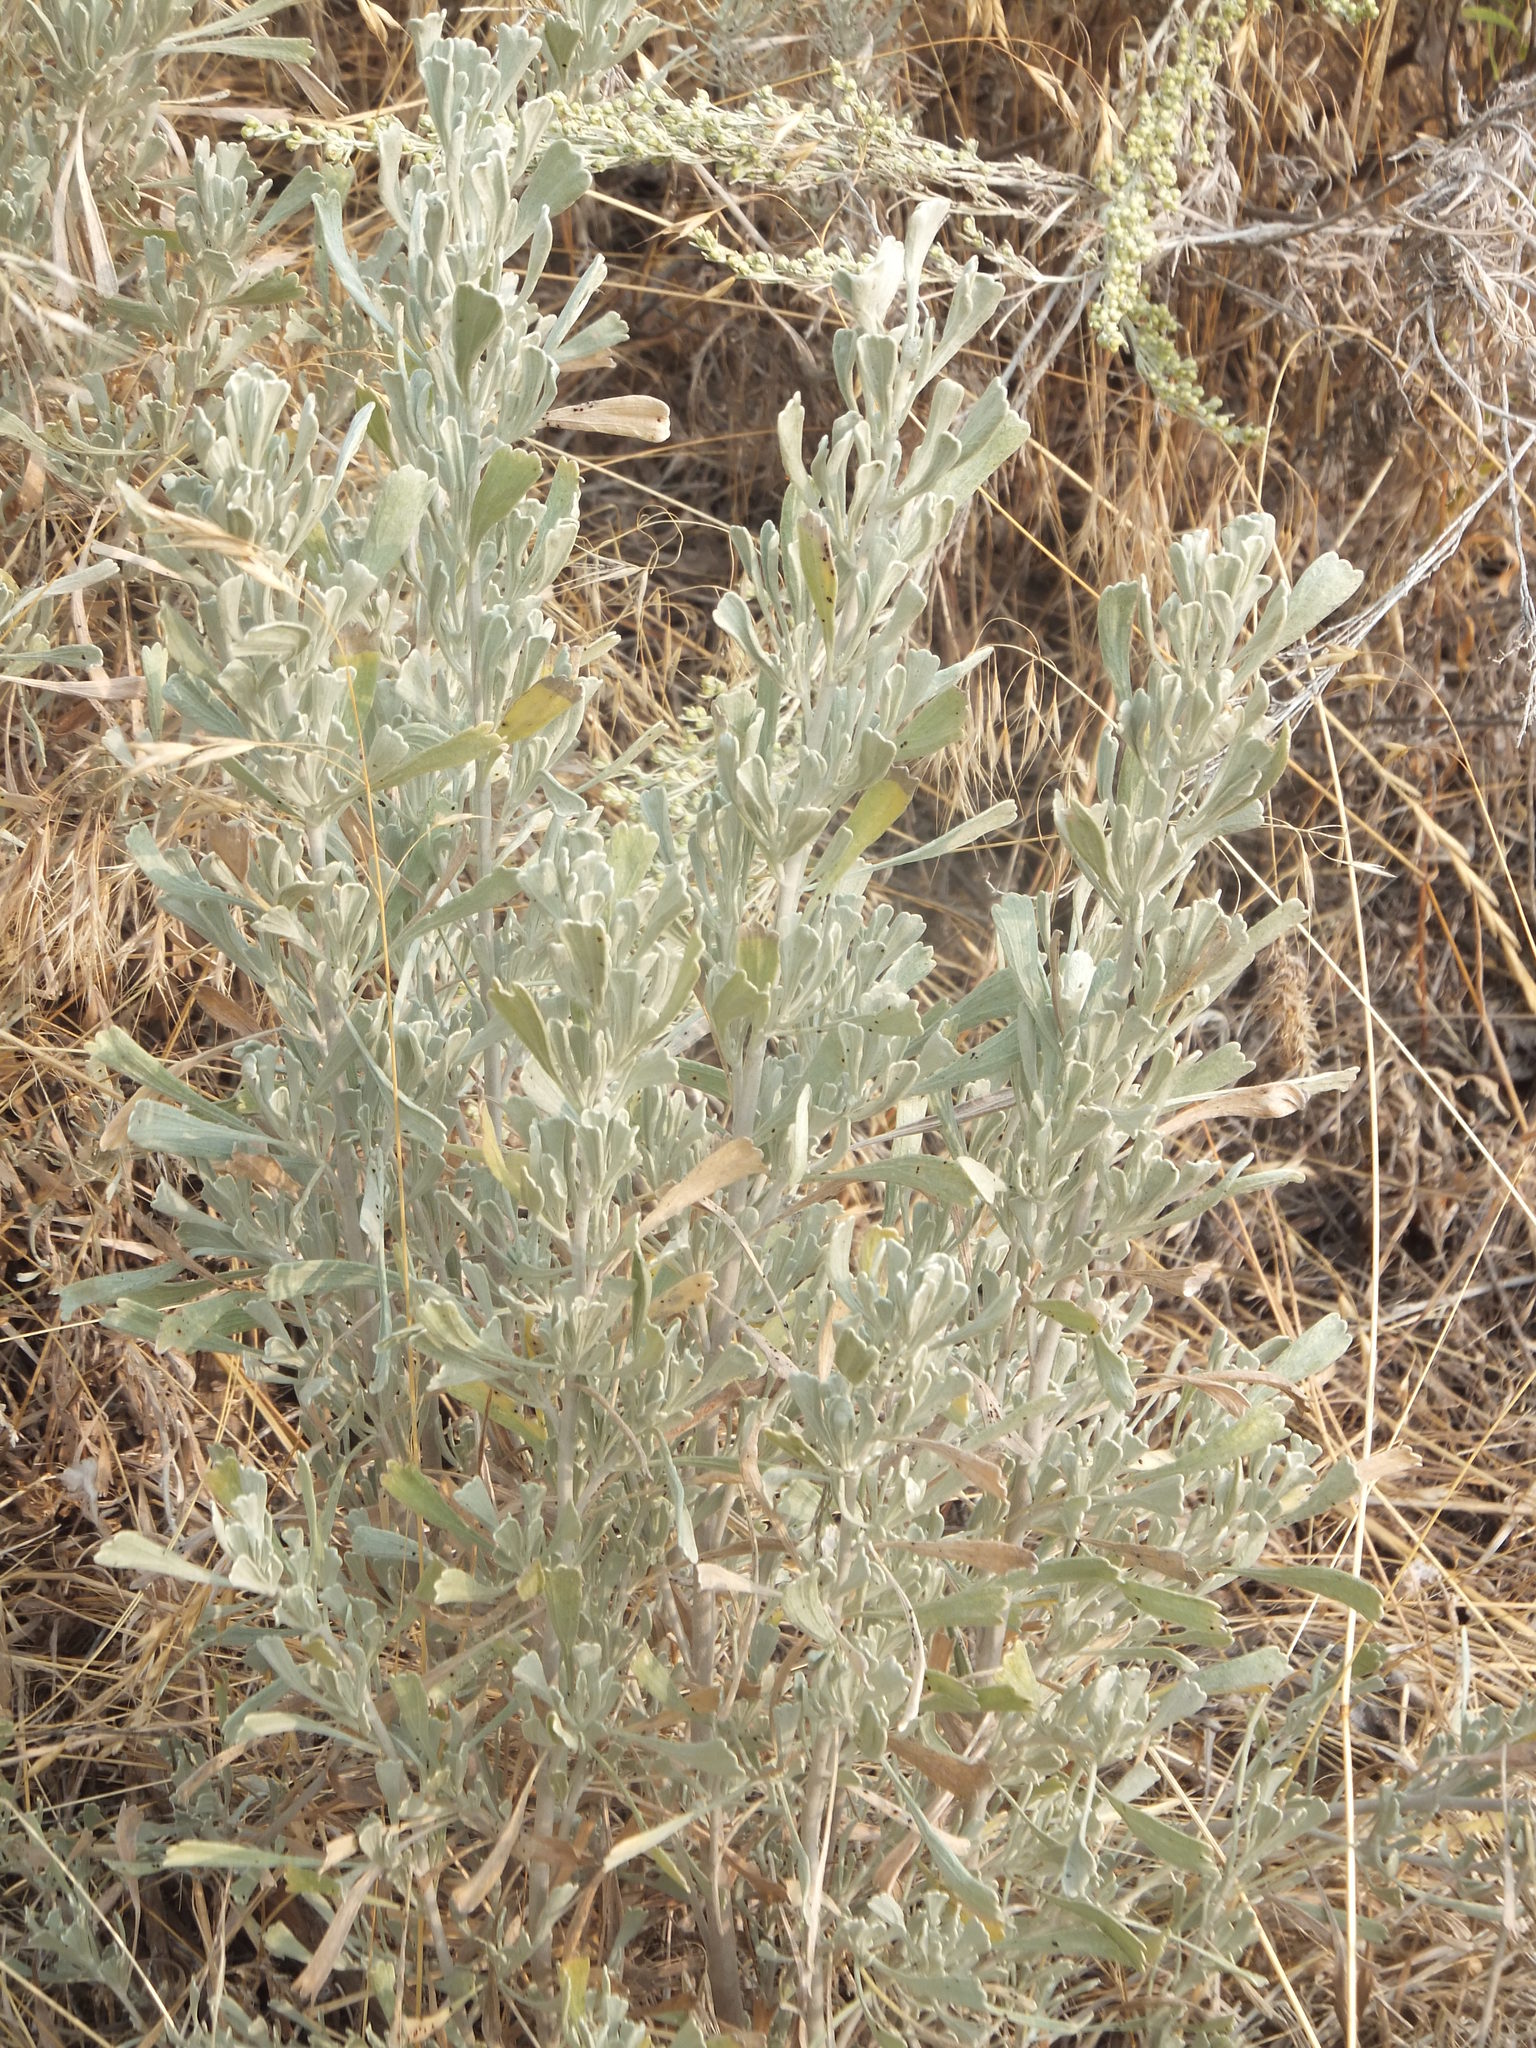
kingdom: Plantae
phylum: Tracheophyta
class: Magnoliopsida
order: Asterales
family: Asteraceae
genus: Artemisia
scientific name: Artemisia tridentata
